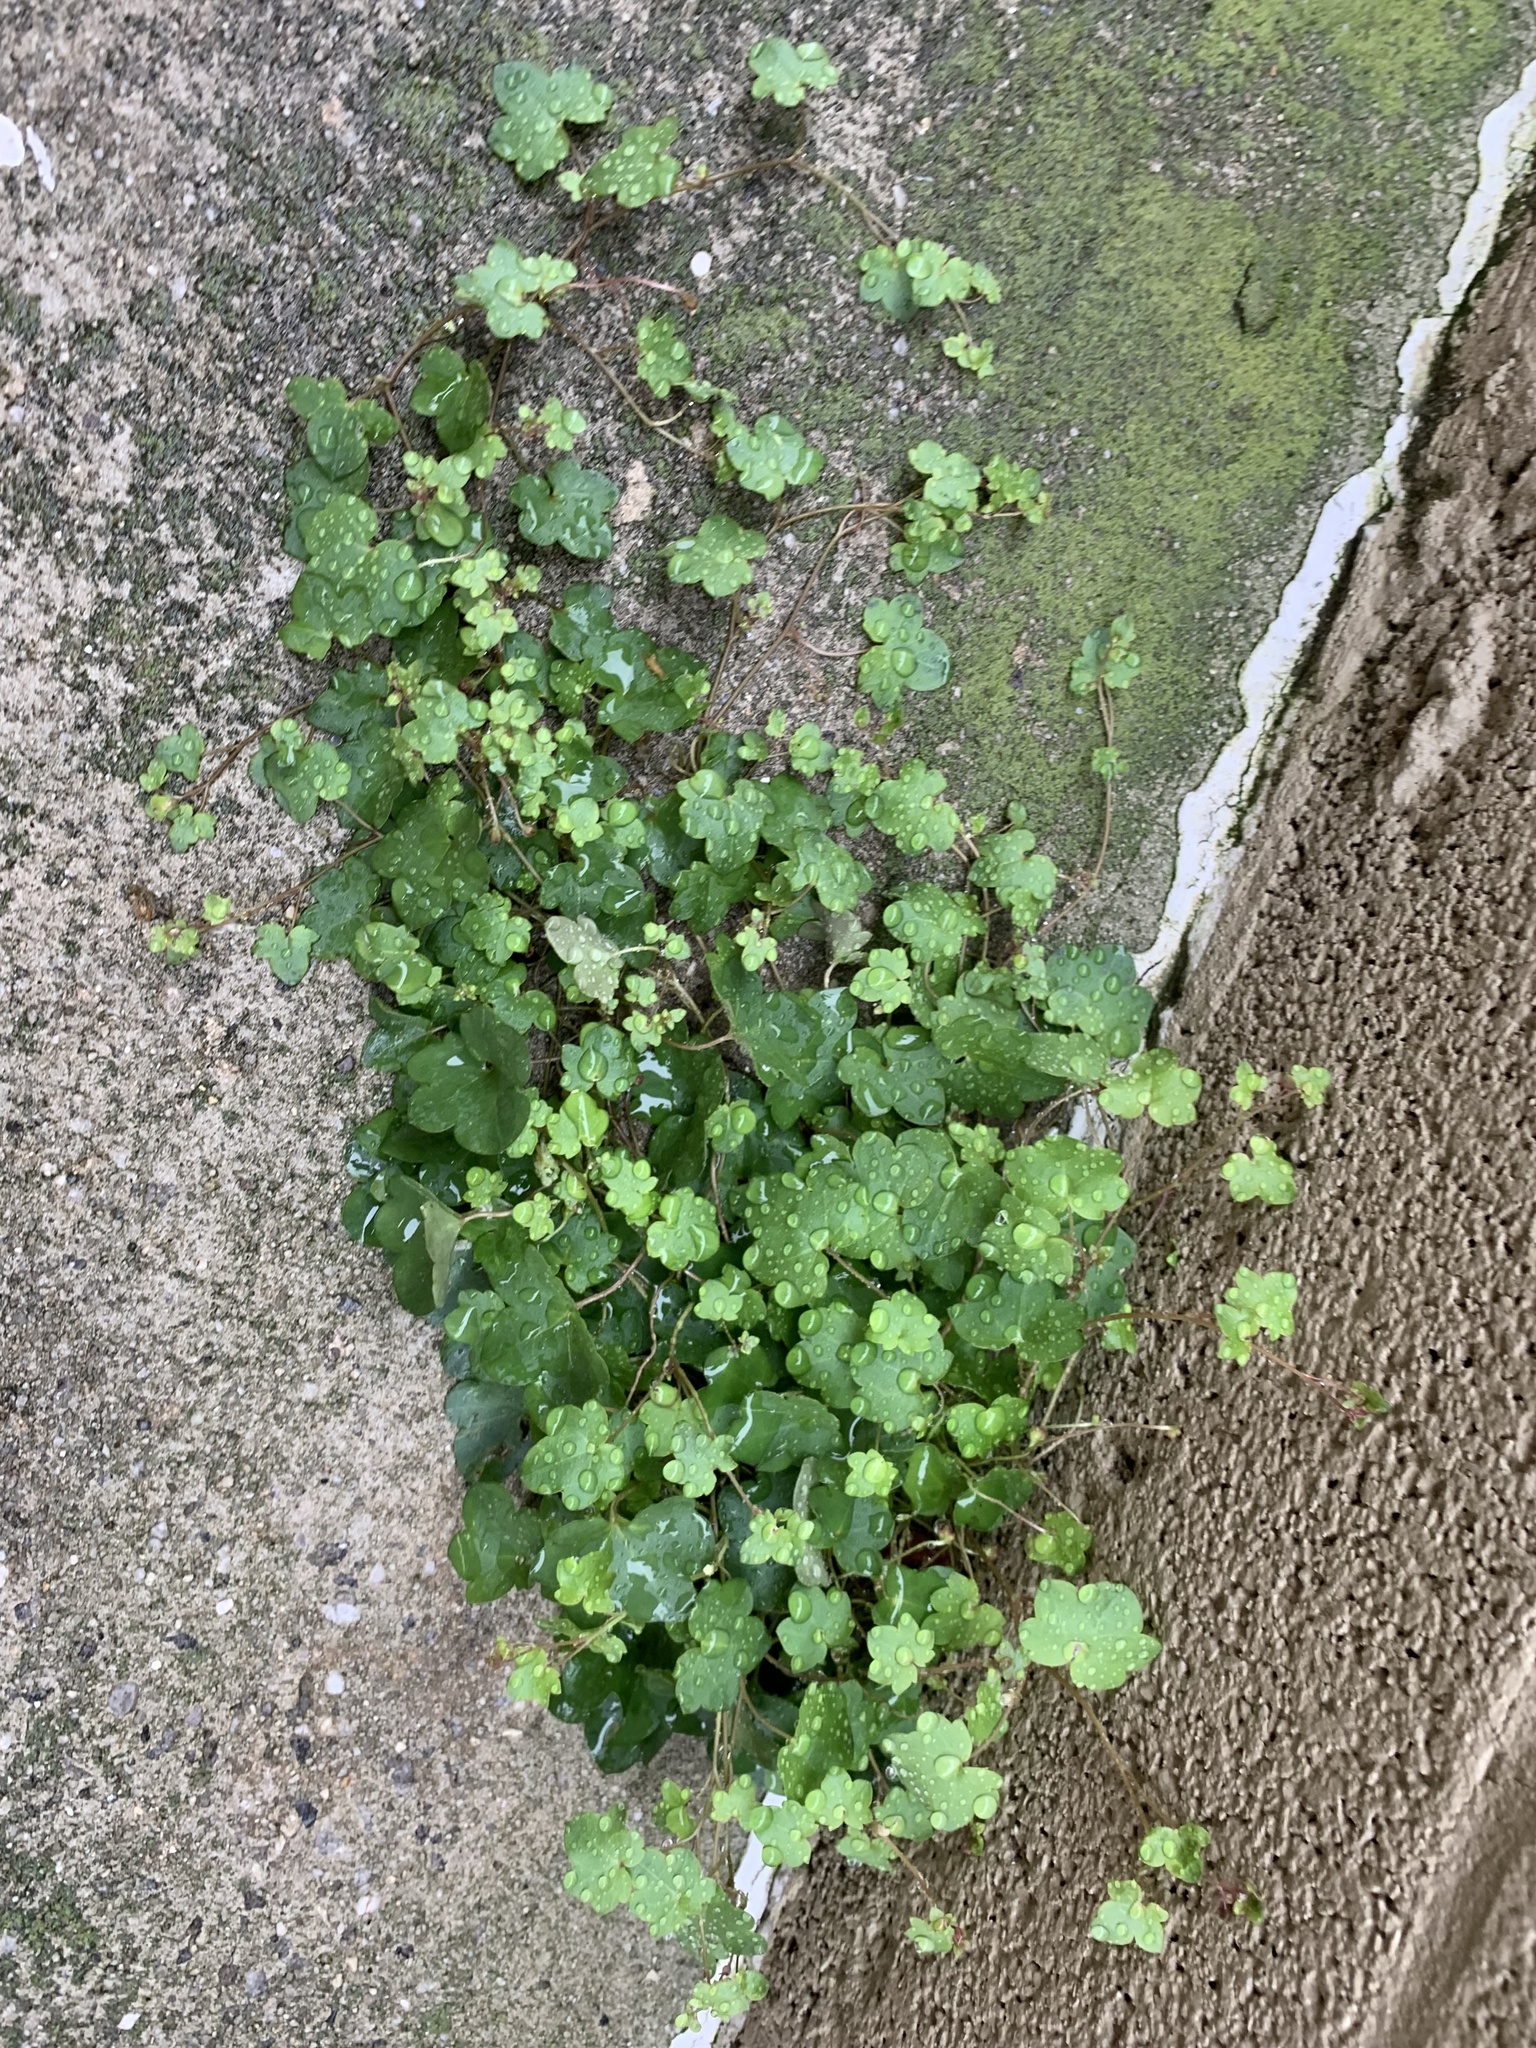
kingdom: Plantae
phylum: Tracheophyta
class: Magnoliopsida
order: Lamiales
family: Plantaginaceae
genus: Cymbalaria
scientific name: Cymbalaria muralis
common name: Ivy-leaved toadflax
